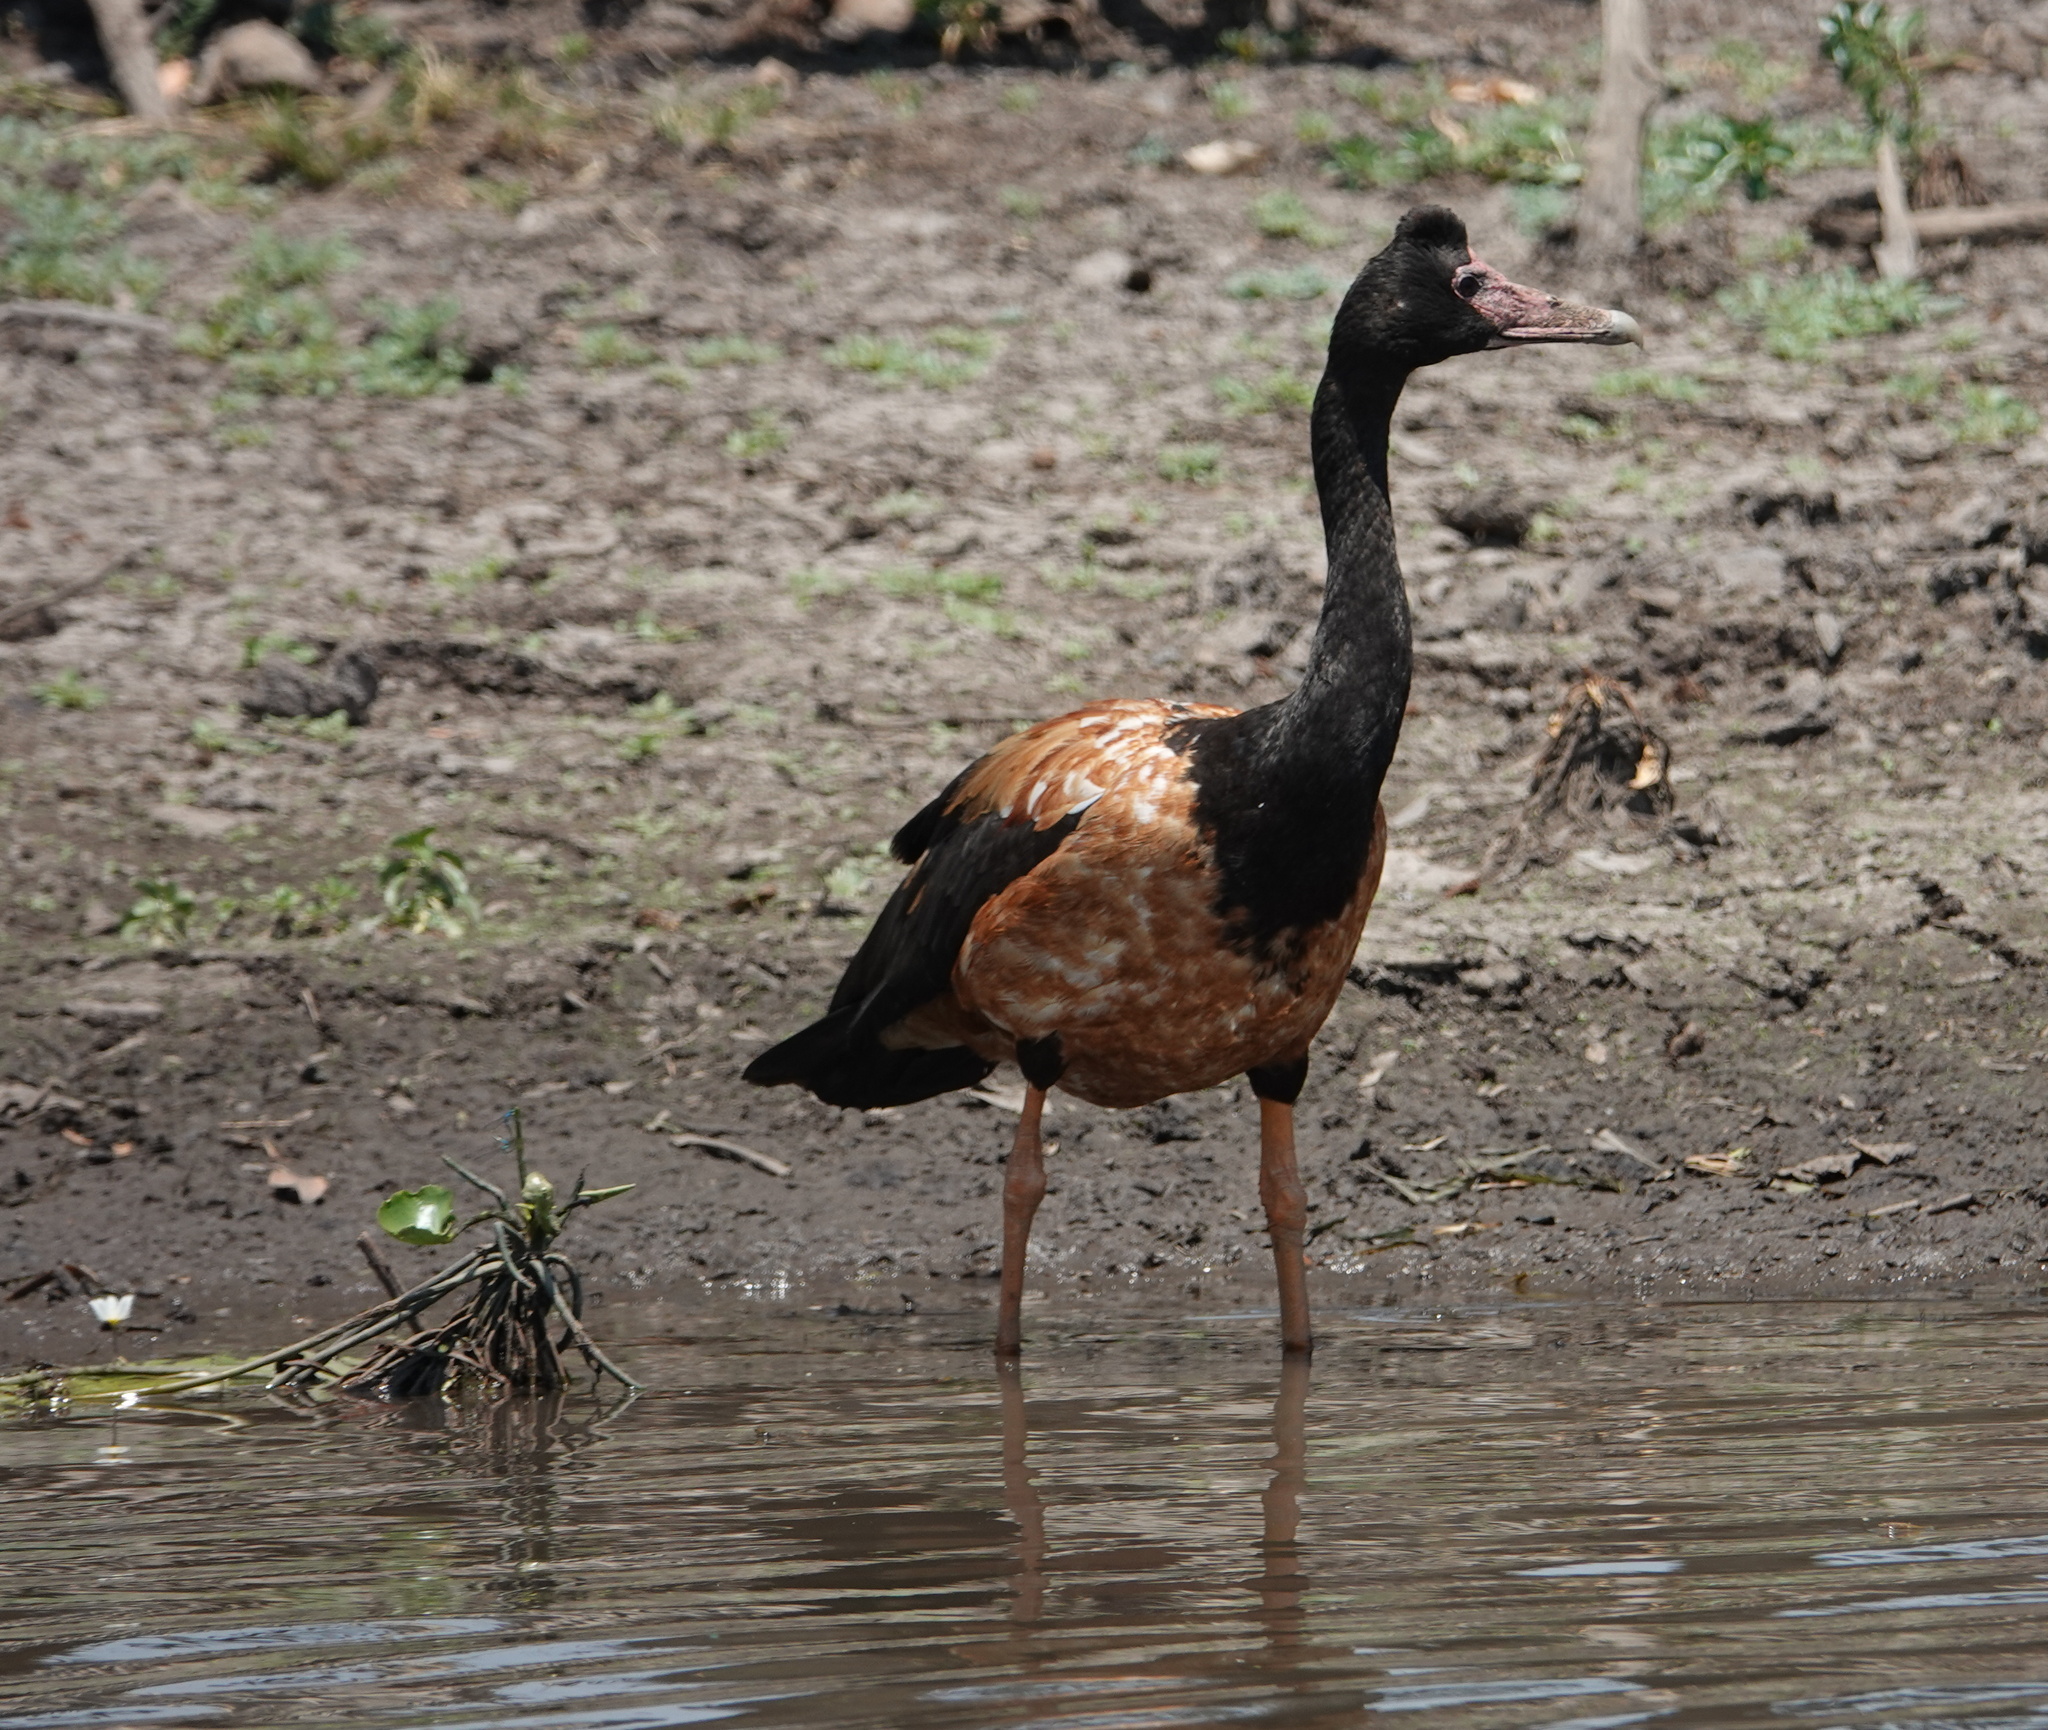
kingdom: Animalia
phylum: Chordata
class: Aves
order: Anseriformes
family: Anseranatidae
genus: Anseranas
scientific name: Anseranas semipalmata
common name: Magpie goose
